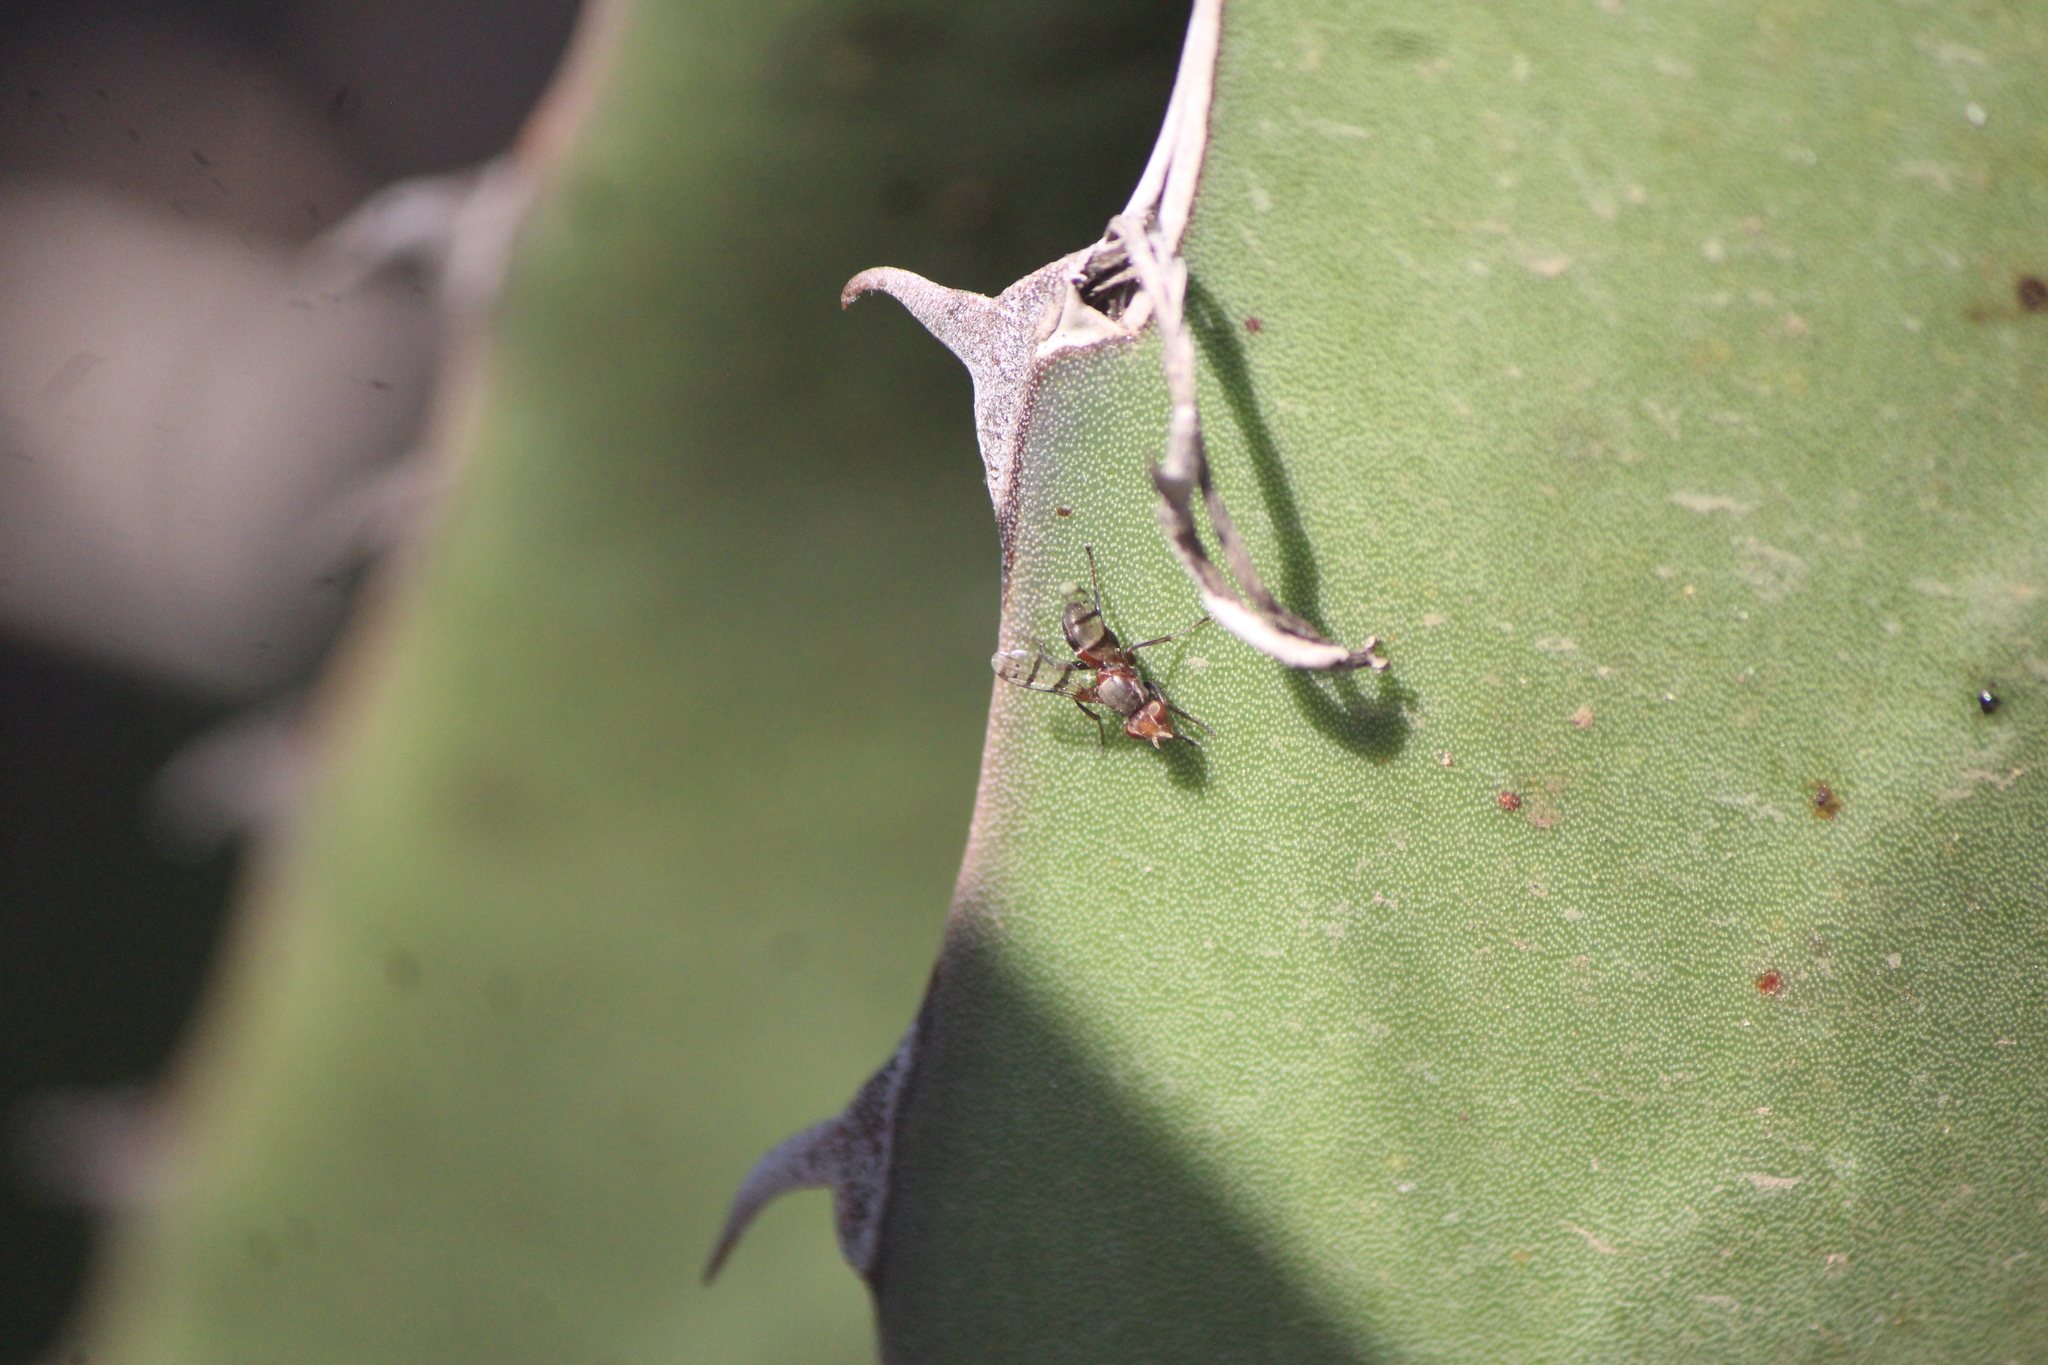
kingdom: Animalia
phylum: Arthropoda
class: Insecta
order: Diptera
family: Richardiidae
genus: Automola
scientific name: Automola rufa
